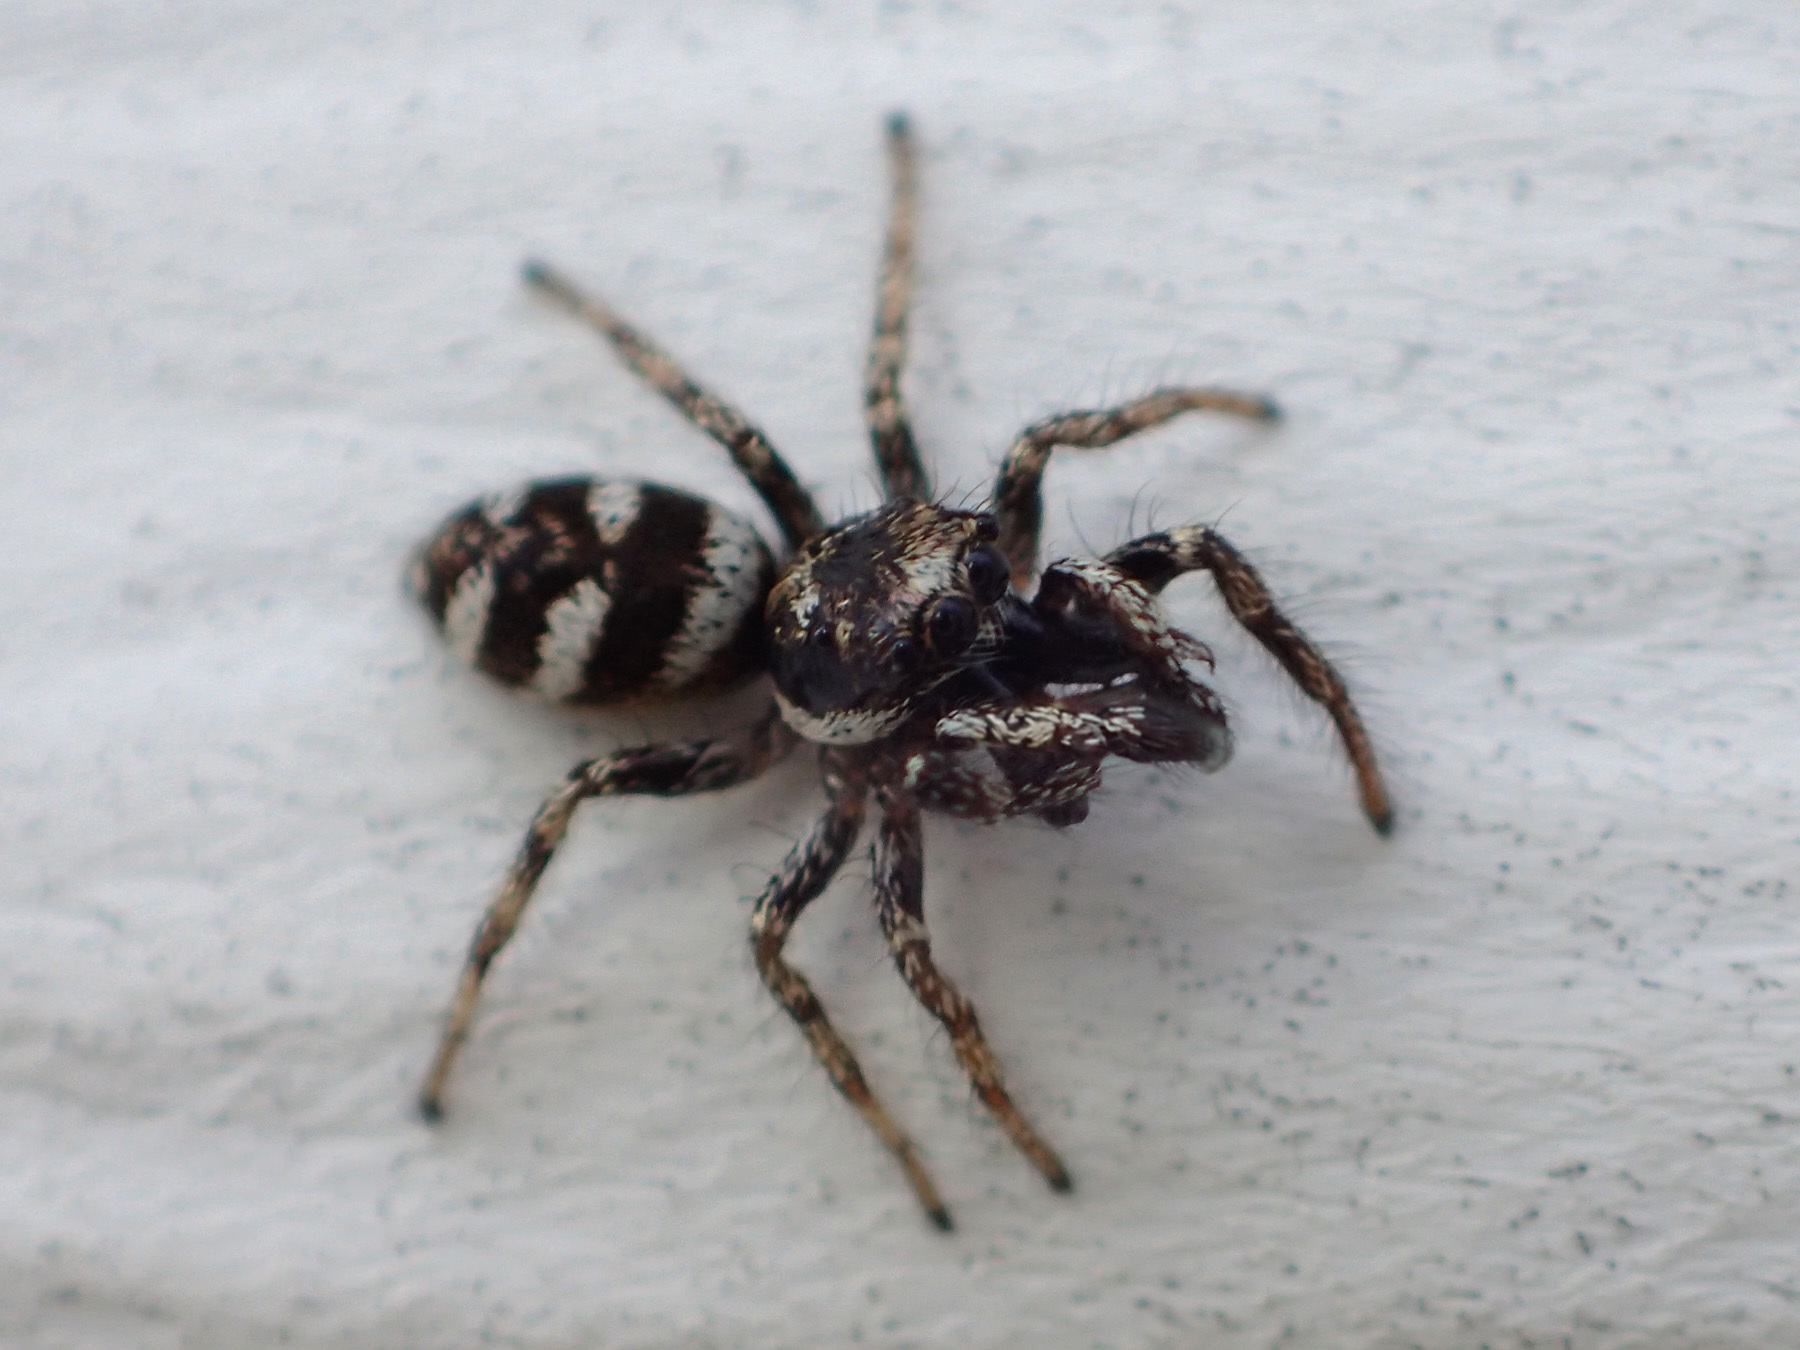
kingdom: Animalia
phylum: Arthropoda
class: Arachnida
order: Araneae
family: Salticidae
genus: Salticus
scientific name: Salticus scenicus
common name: Zebra jumper
